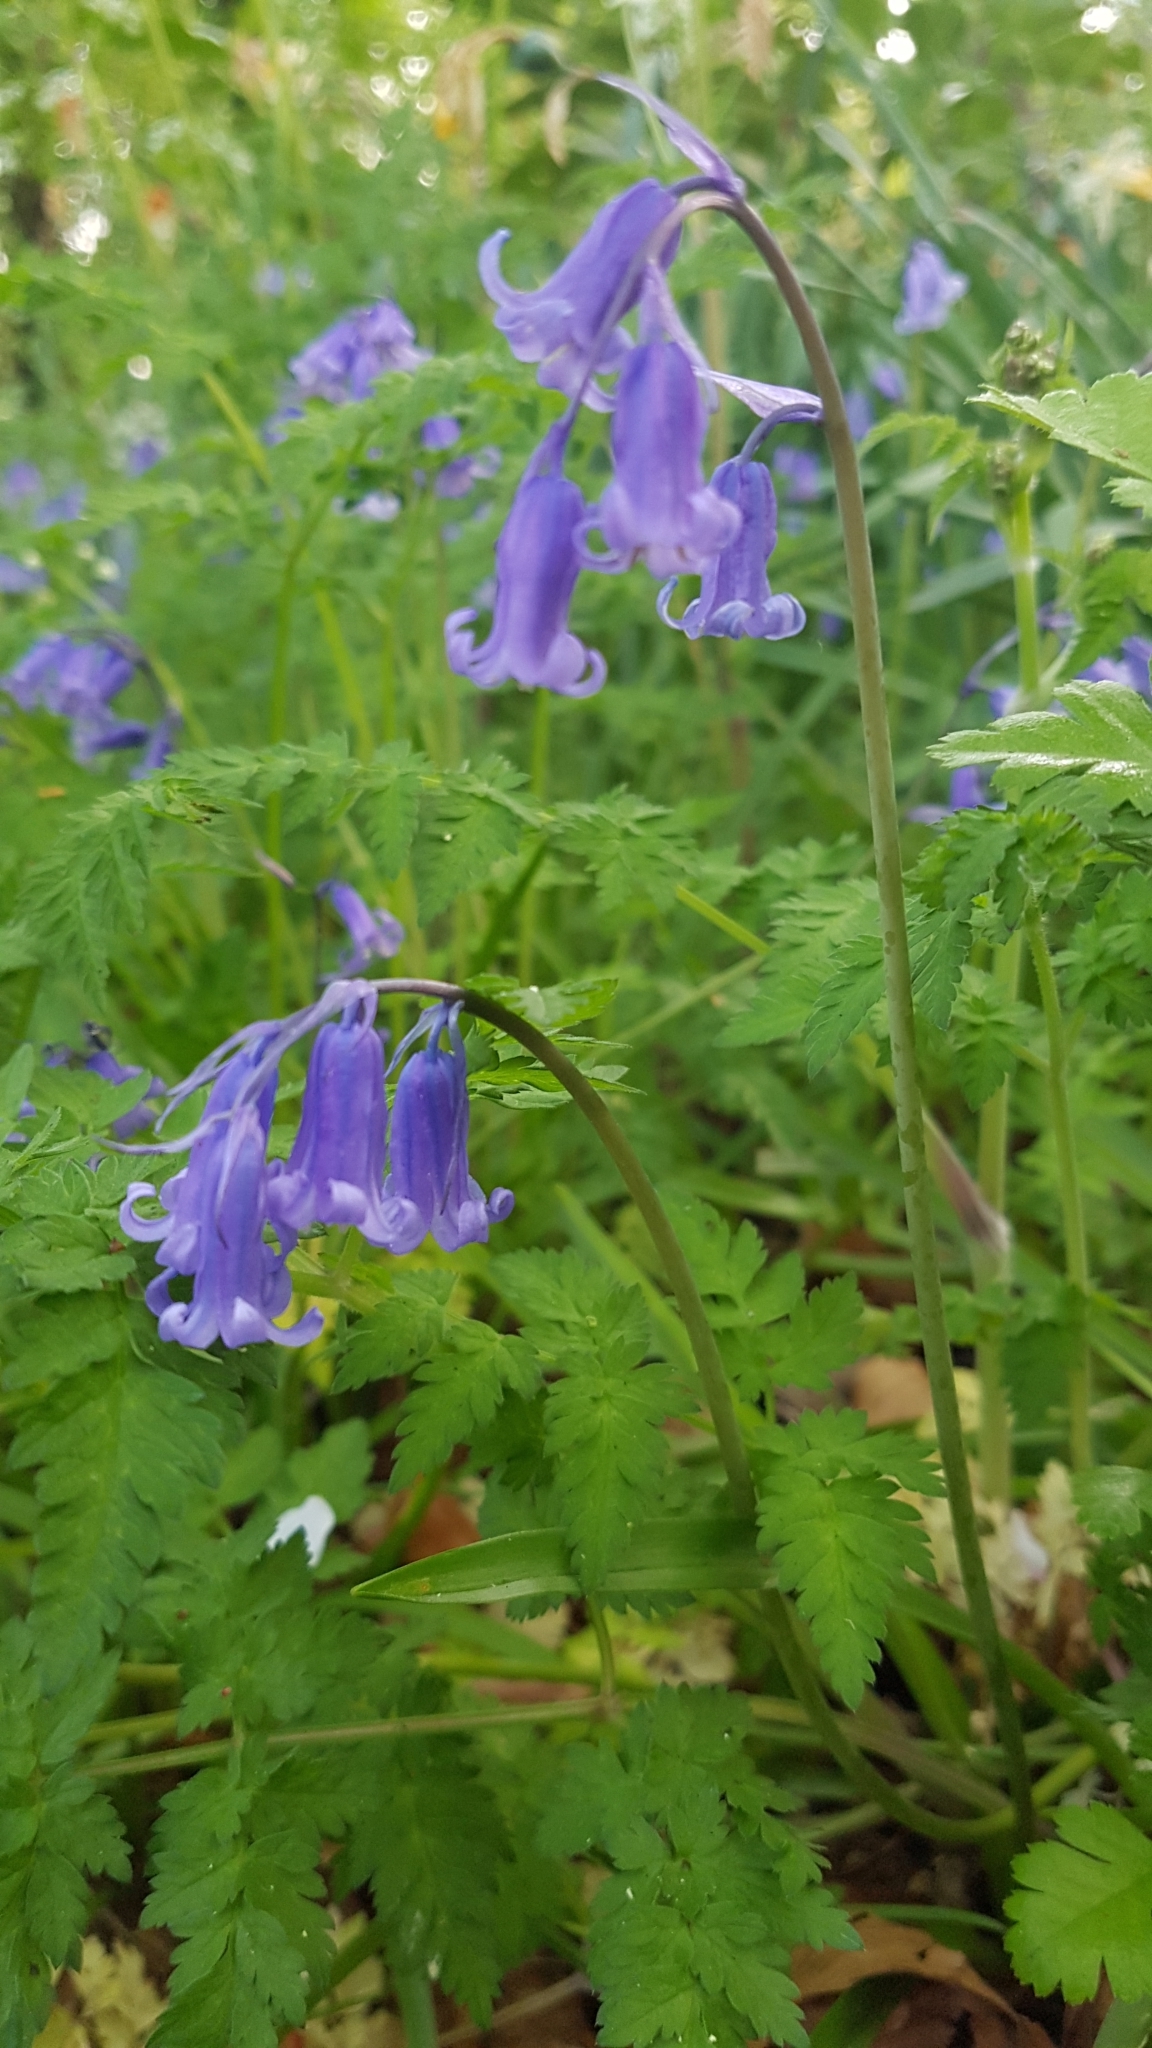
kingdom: Plantae
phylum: Tracheophyta
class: Liliopsida
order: Asparagales
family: Asparagaceae
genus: Hyacinthoides
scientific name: Hyacinthoides non-scripta
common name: Bluebell
